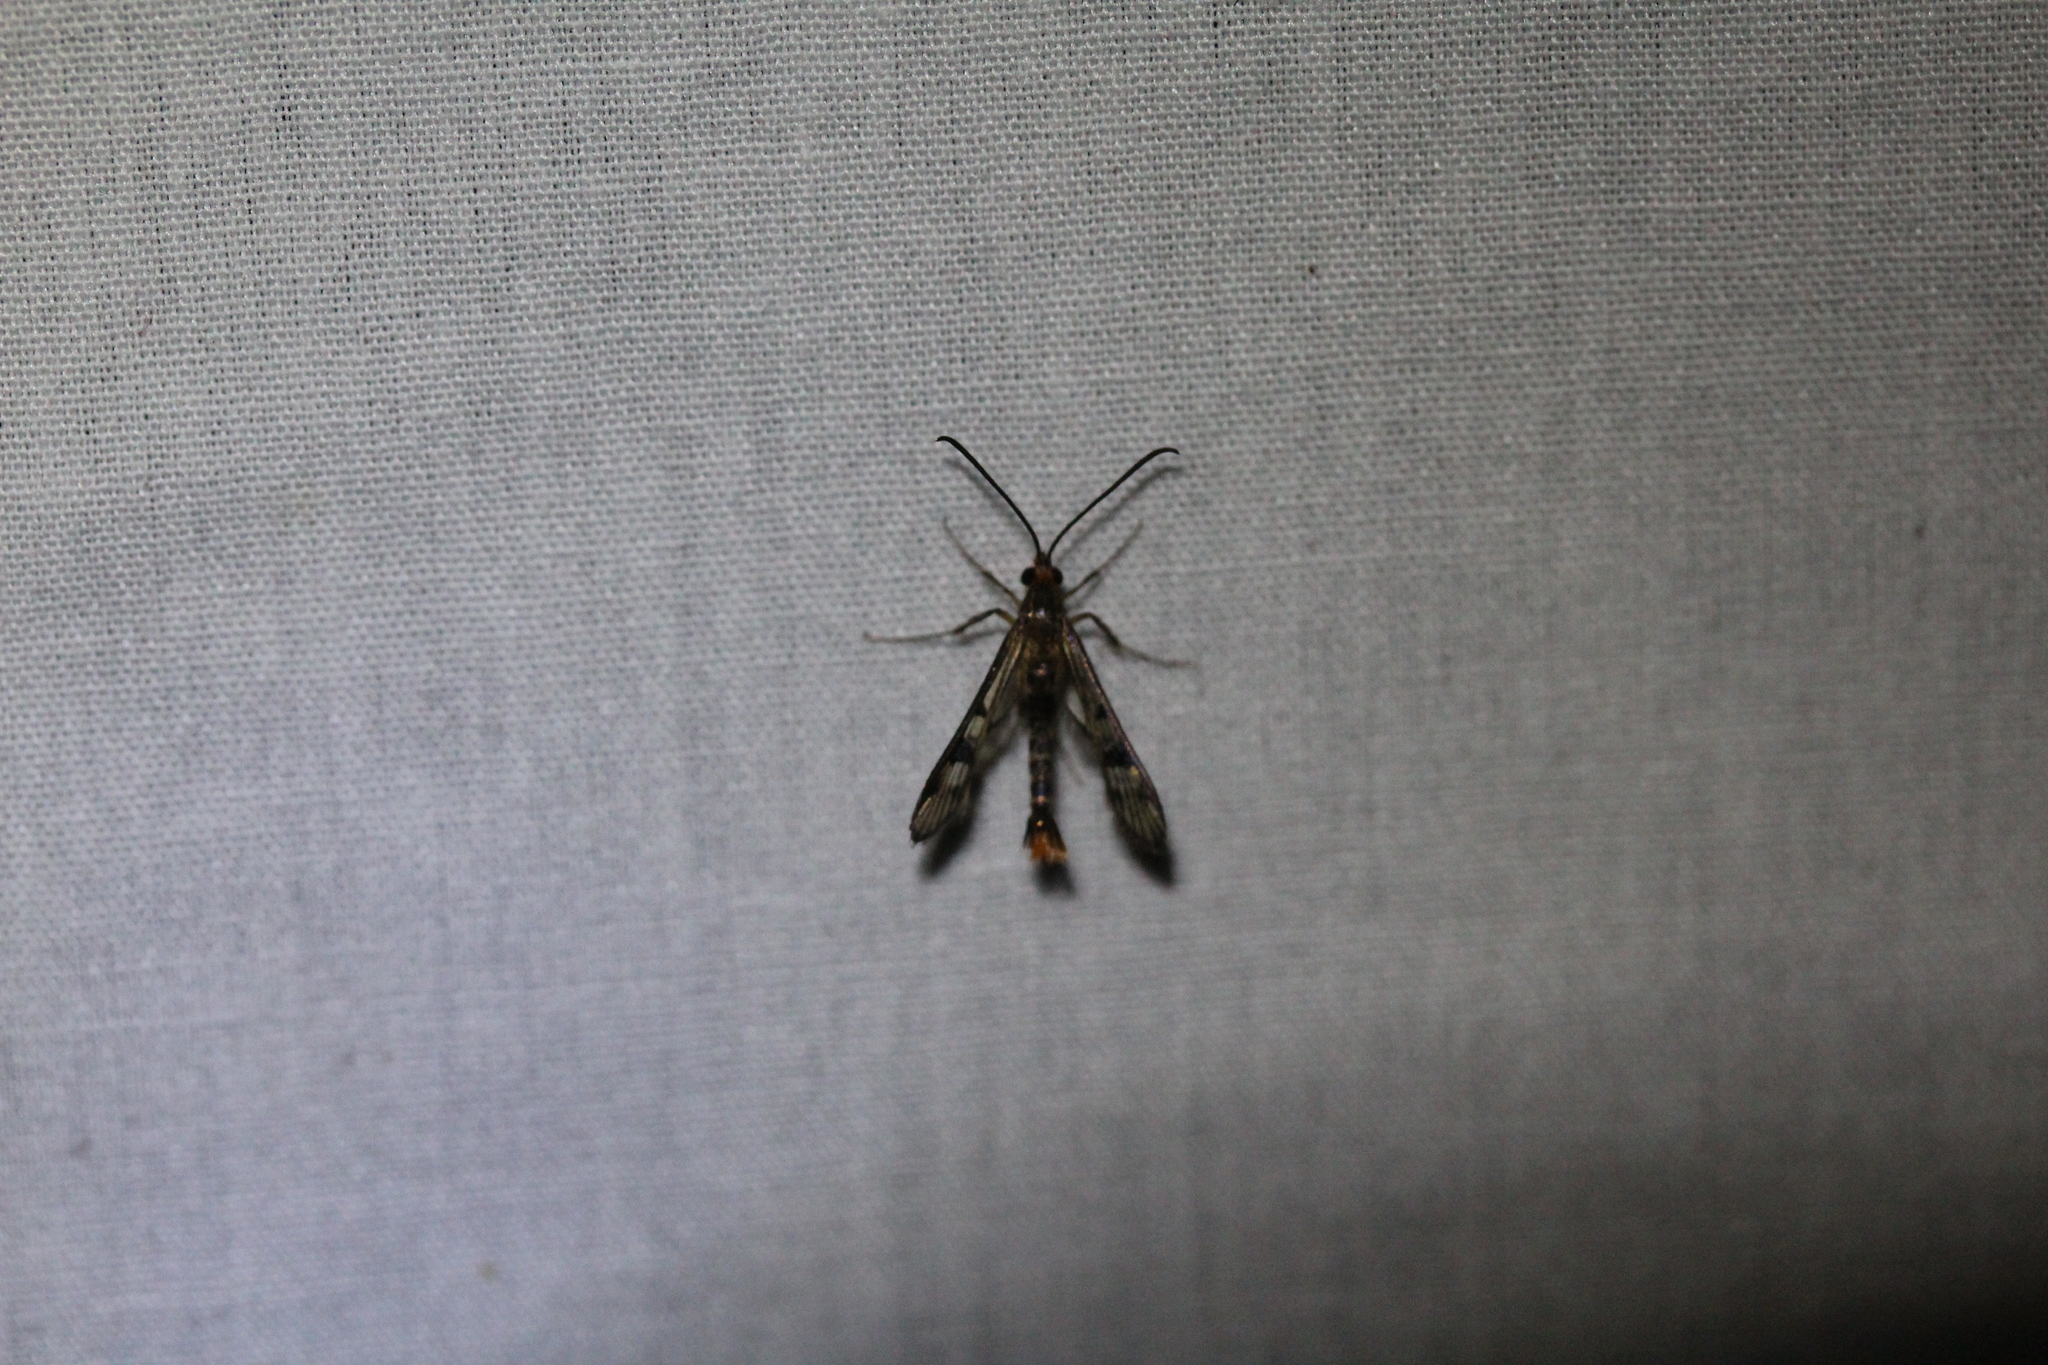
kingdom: Animalia
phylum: Arthropoda
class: Insecta
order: Lepidoptera
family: Sesiidae
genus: Synanthedon
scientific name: Synanthedon acerni
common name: Maple callus borer moth
